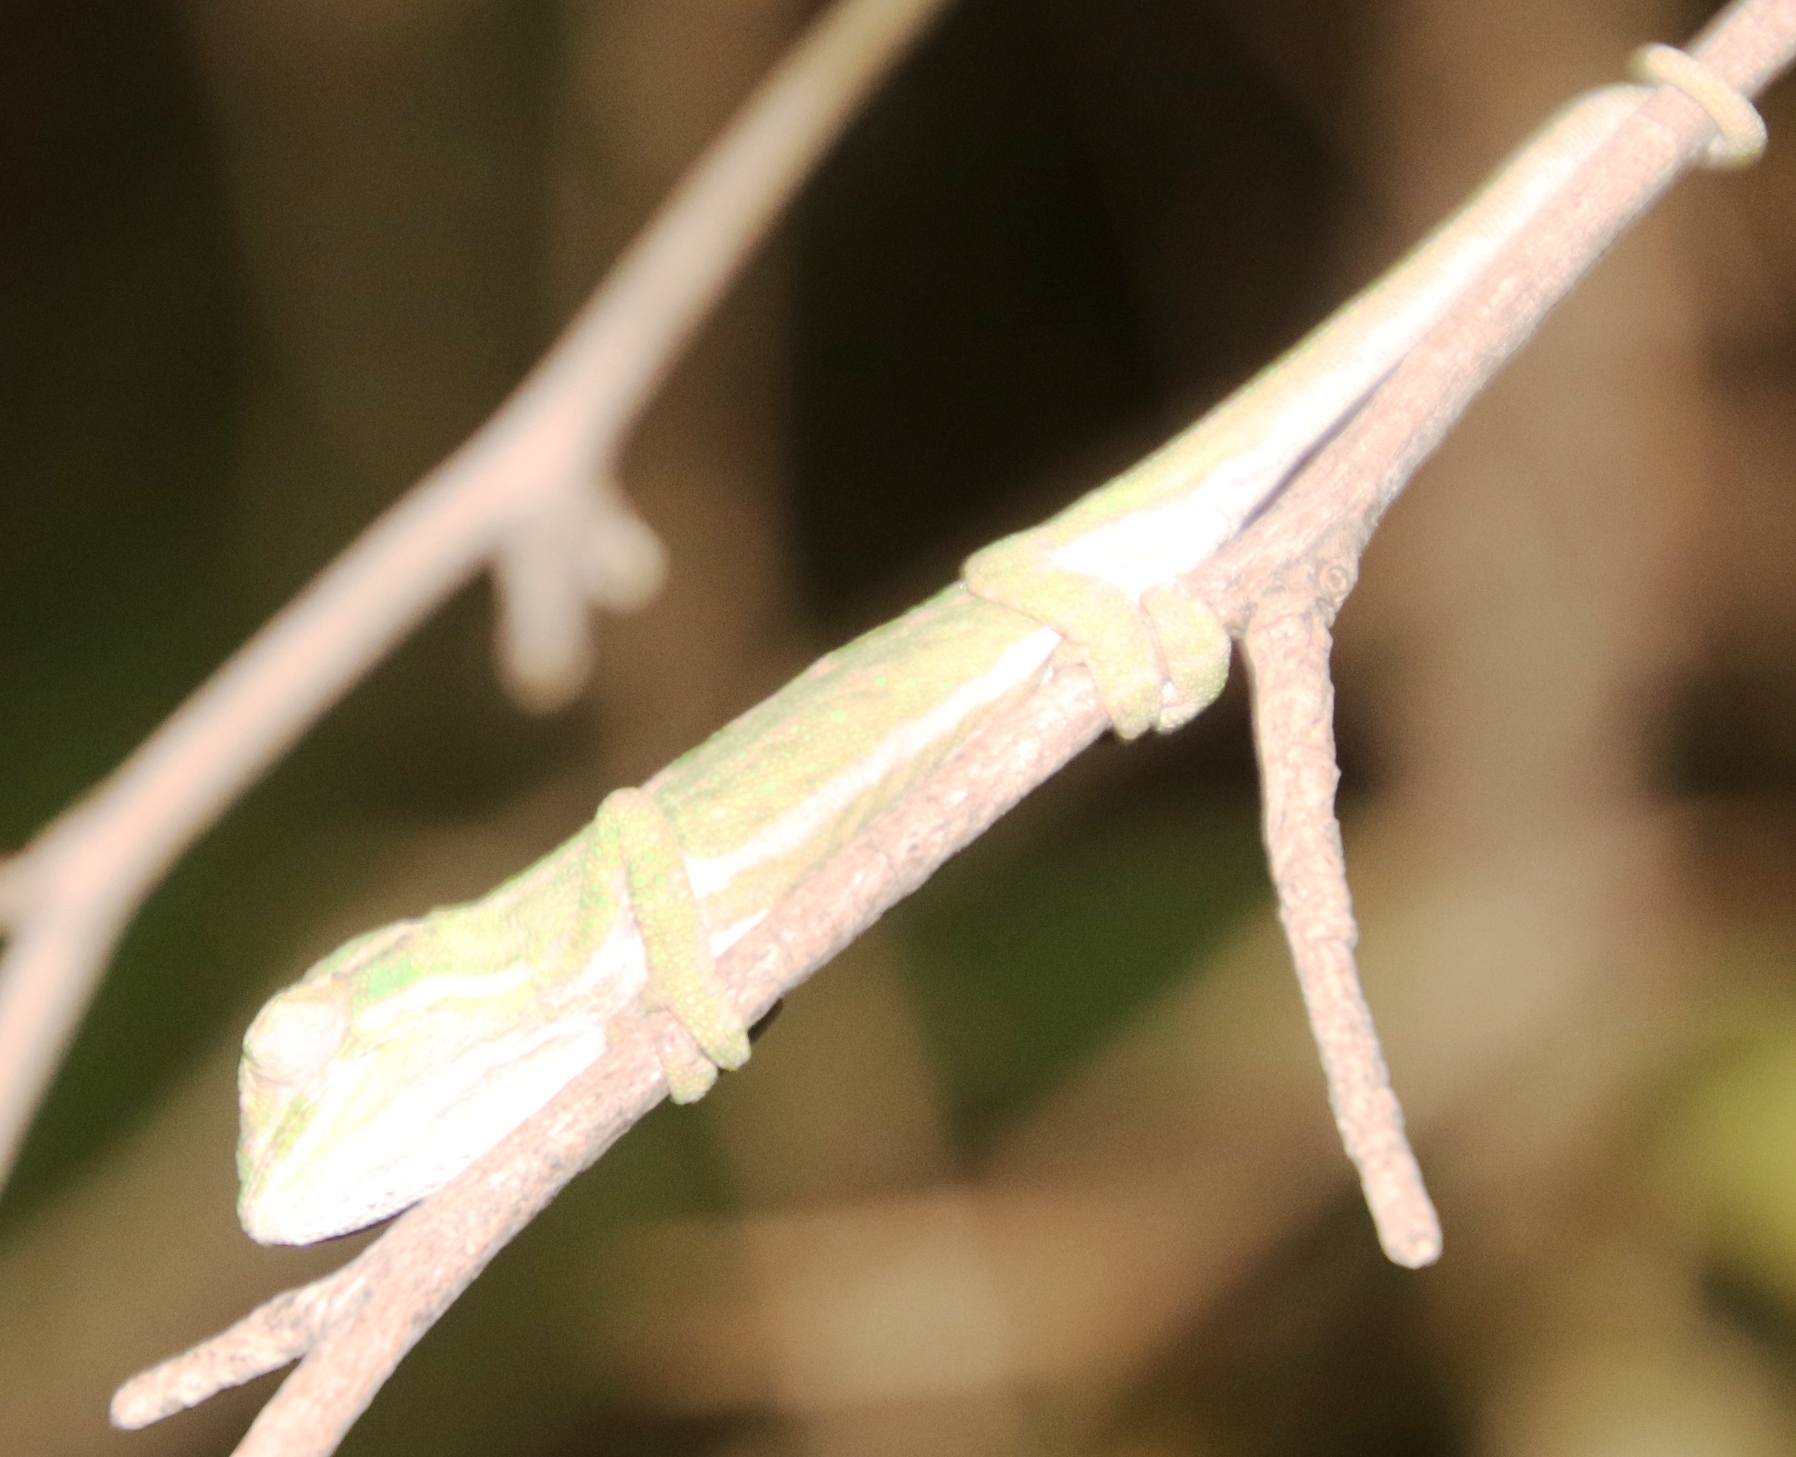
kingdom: Animalia
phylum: Chordata
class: Squamata
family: Chamaeleonidae
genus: Bradypodion
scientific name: Bradypodion pumilum
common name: Cape dwarf chameleon
